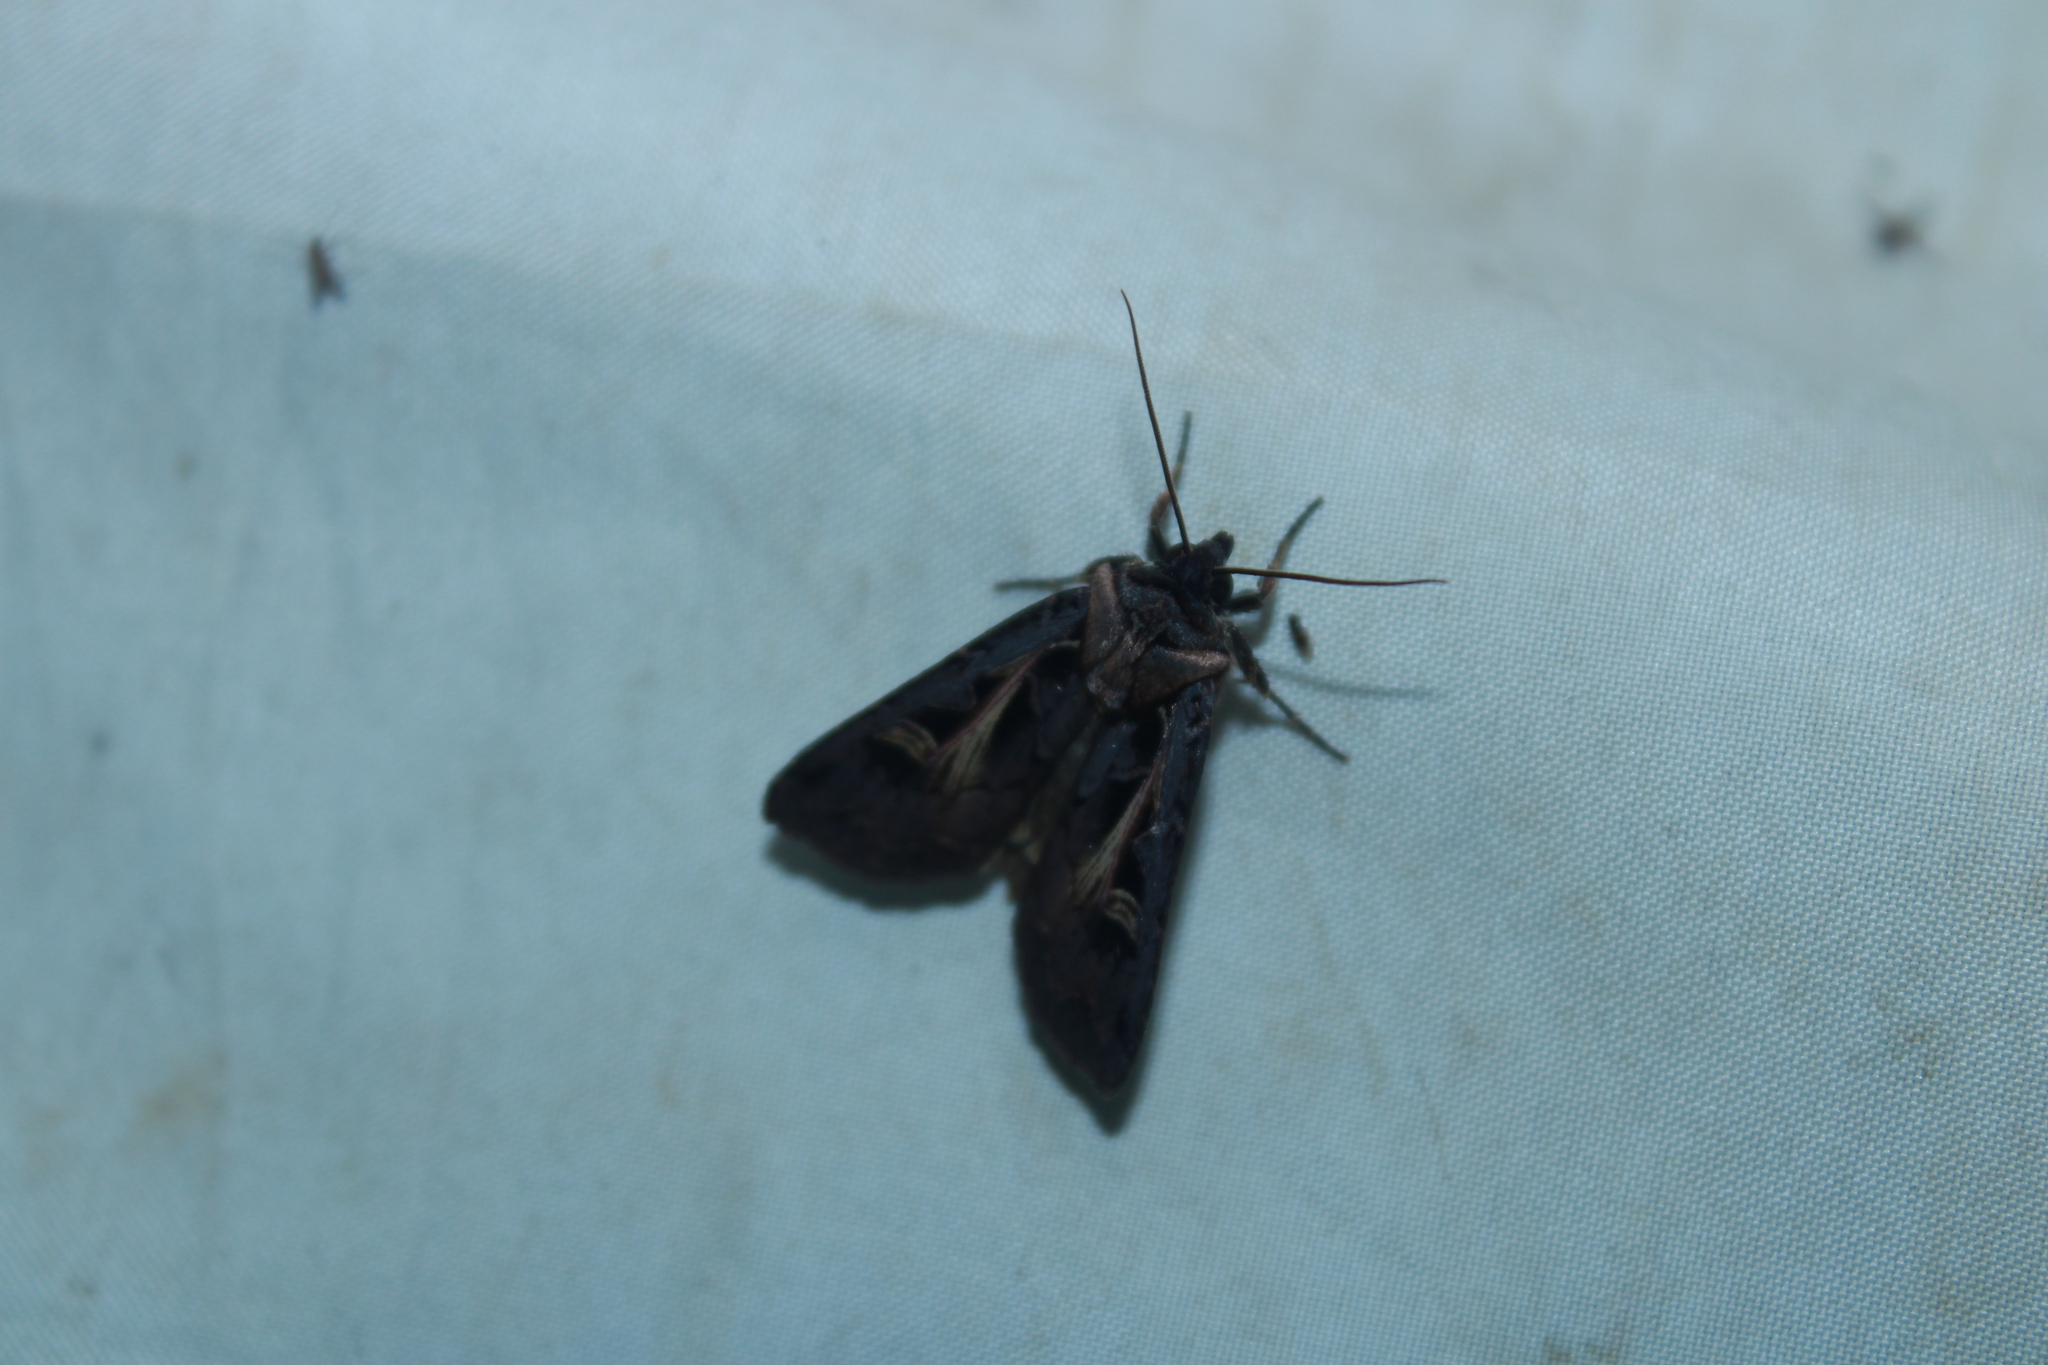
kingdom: Animalia
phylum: Arthropoda
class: Insecta
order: Lepidoptera
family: Noctuidae
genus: Feltia
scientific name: Feltia herilis
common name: Master's dart
